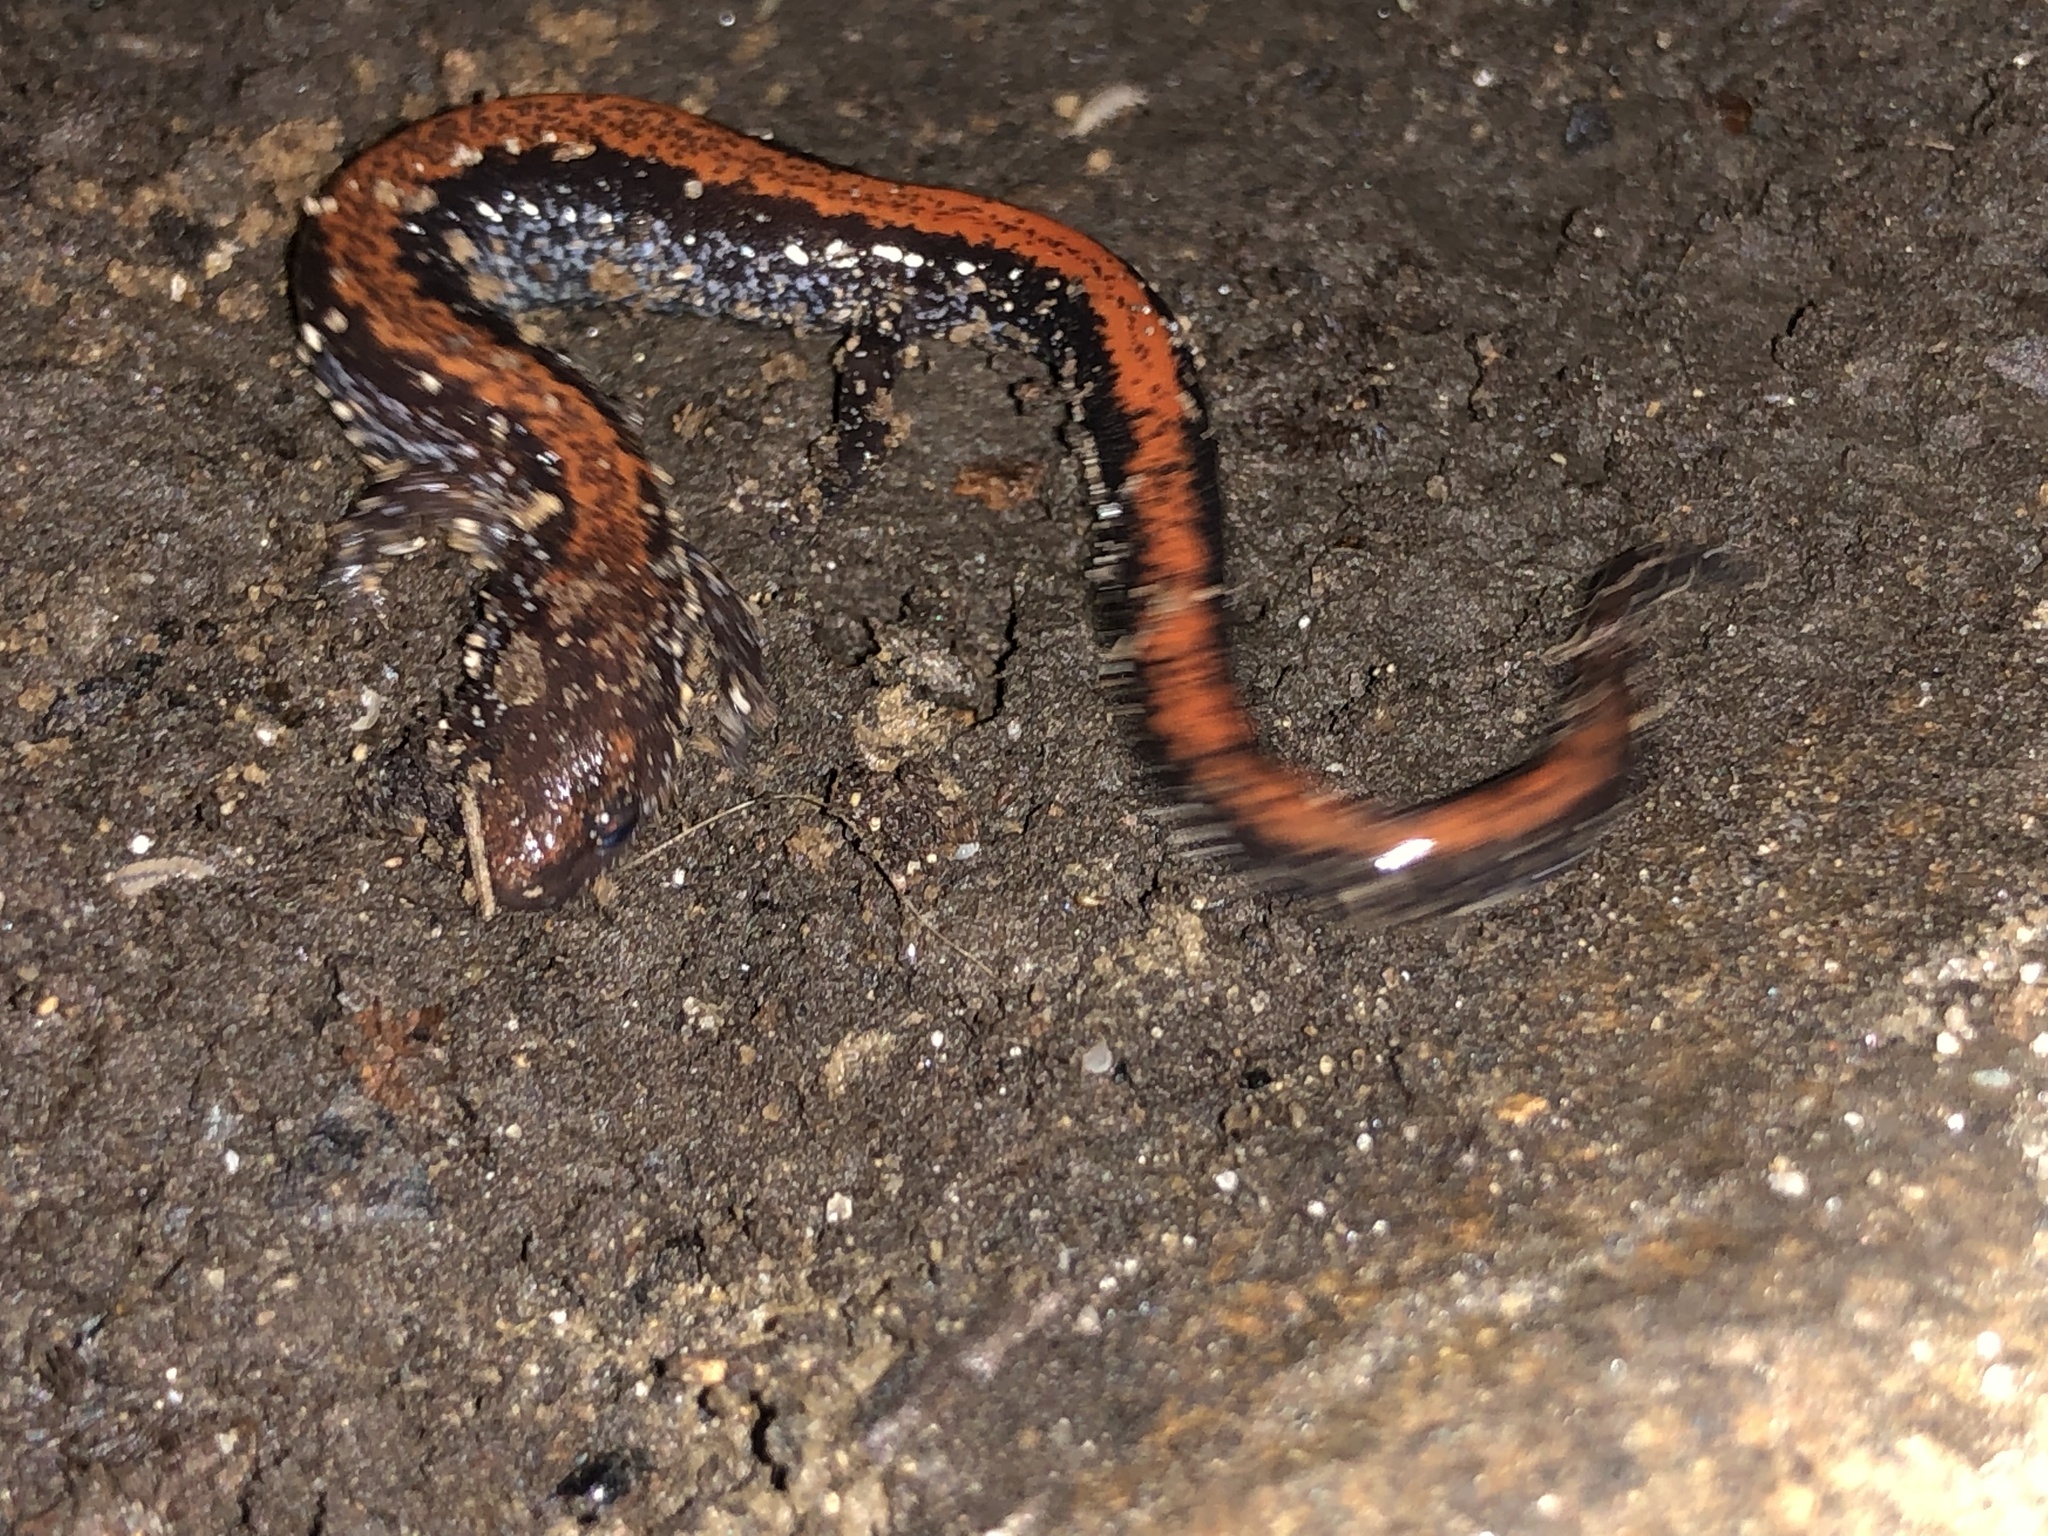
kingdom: Animalia
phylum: Chordata
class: Amphibia
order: Caudata
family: Plethodontidae
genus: Plethodon
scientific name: Plethodon cinereus
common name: Redback salamander
